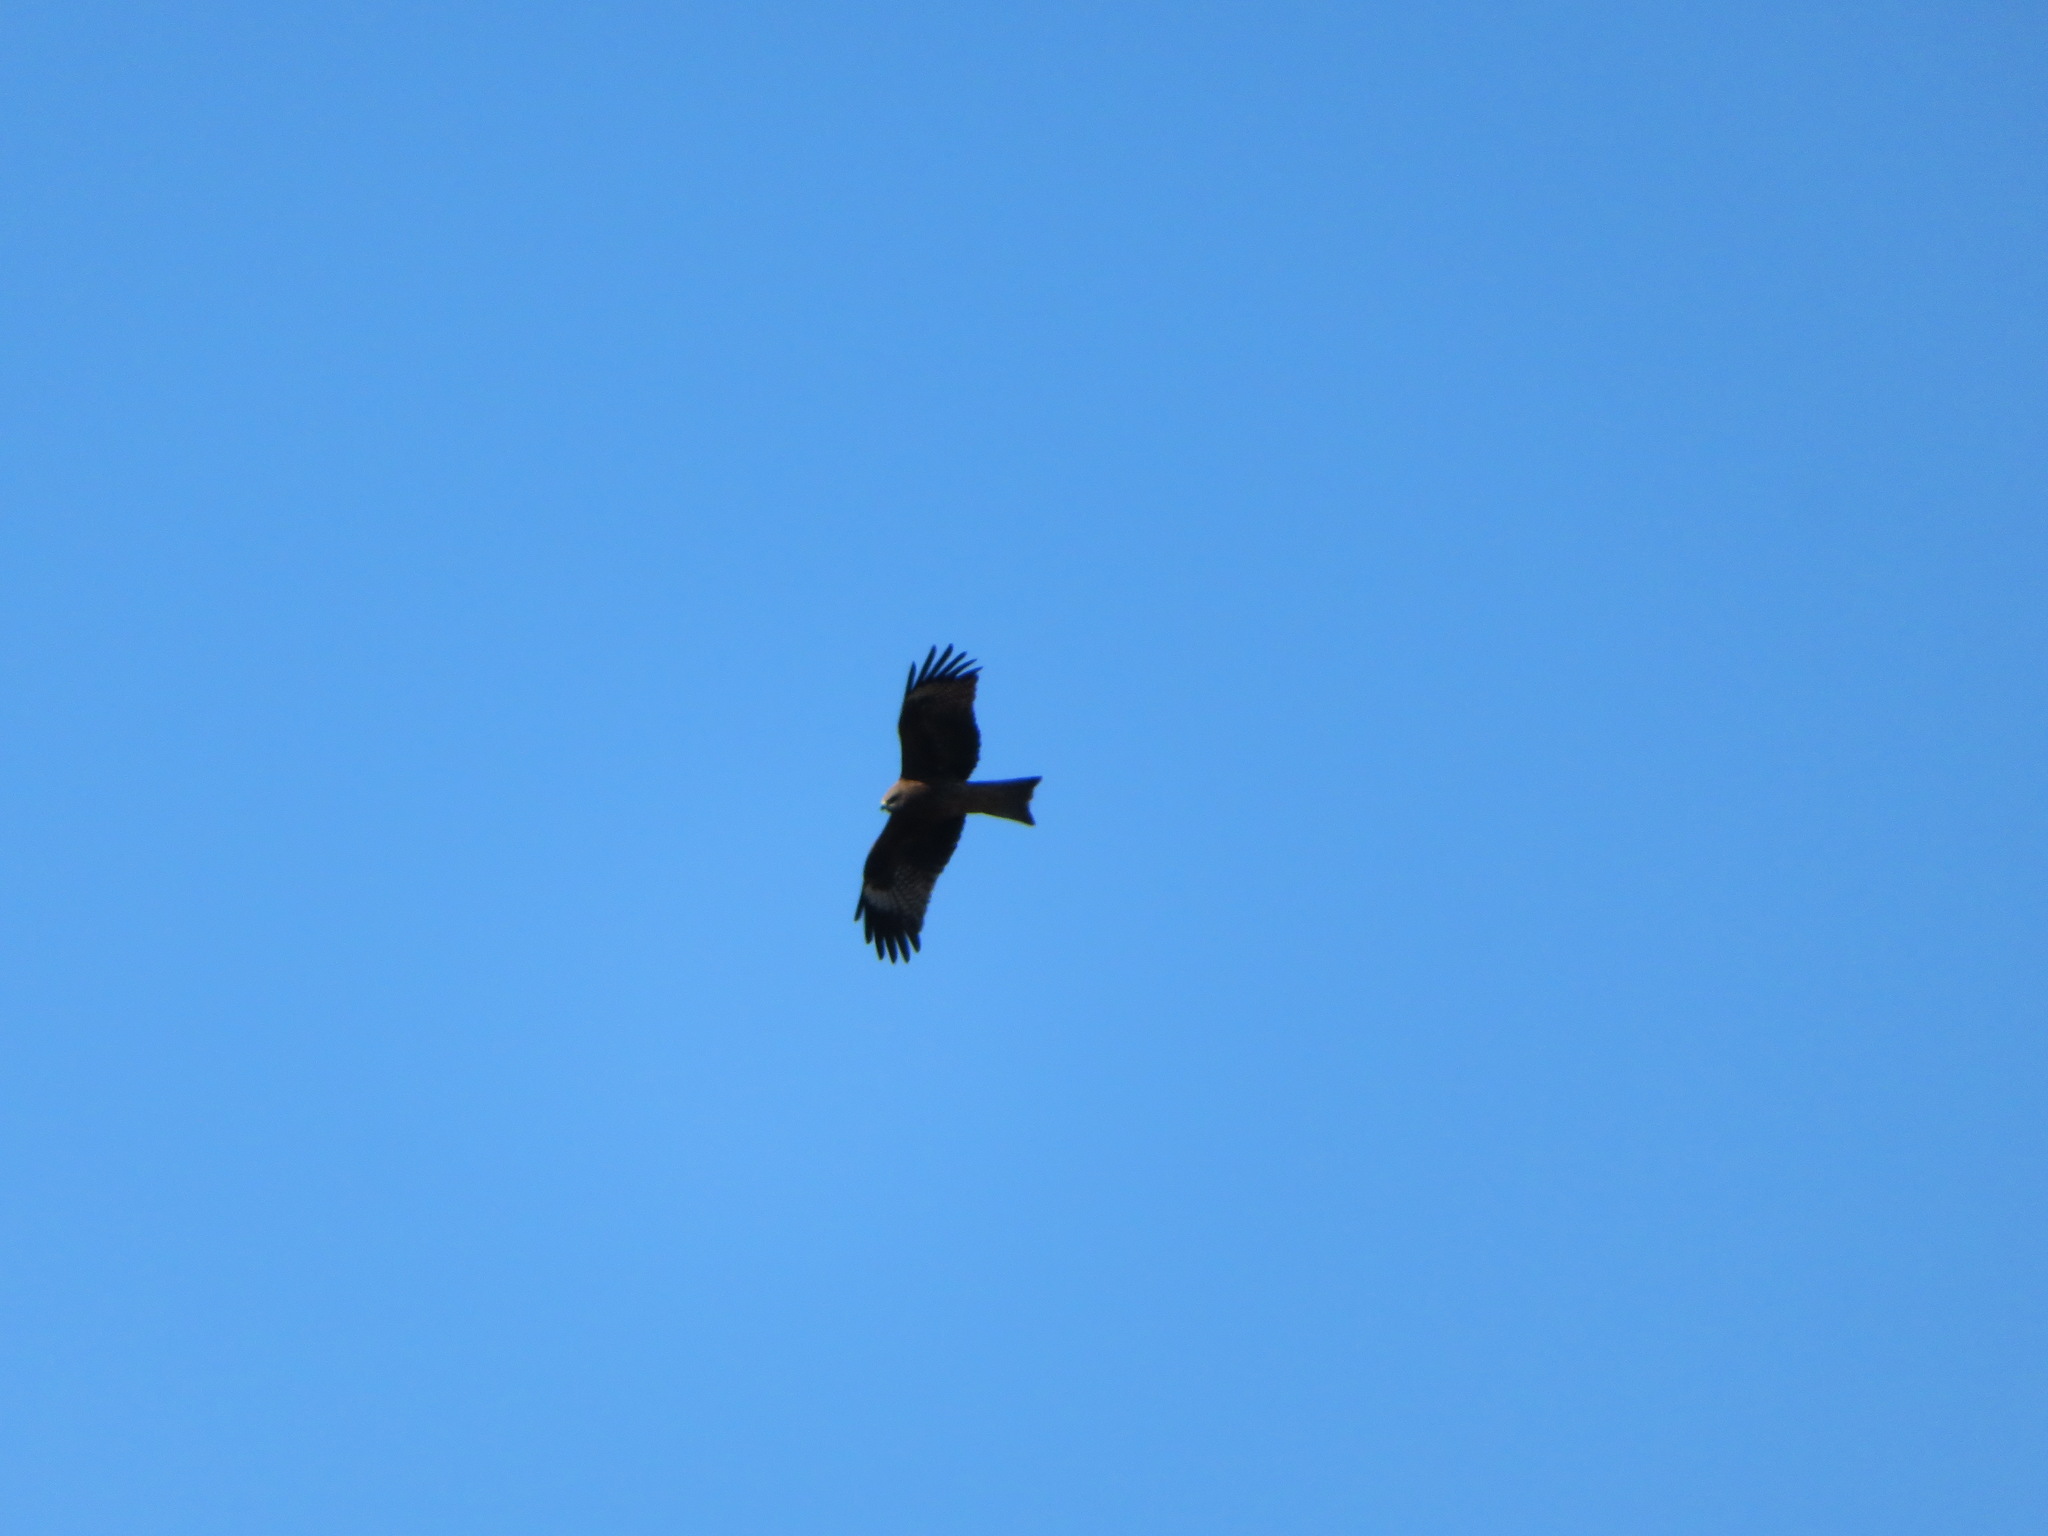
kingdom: Animalia
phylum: Chordata
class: Aves
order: Accipitriformes
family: Accipitridae
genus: Milvus
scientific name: Milvus migrans
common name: Black kite
